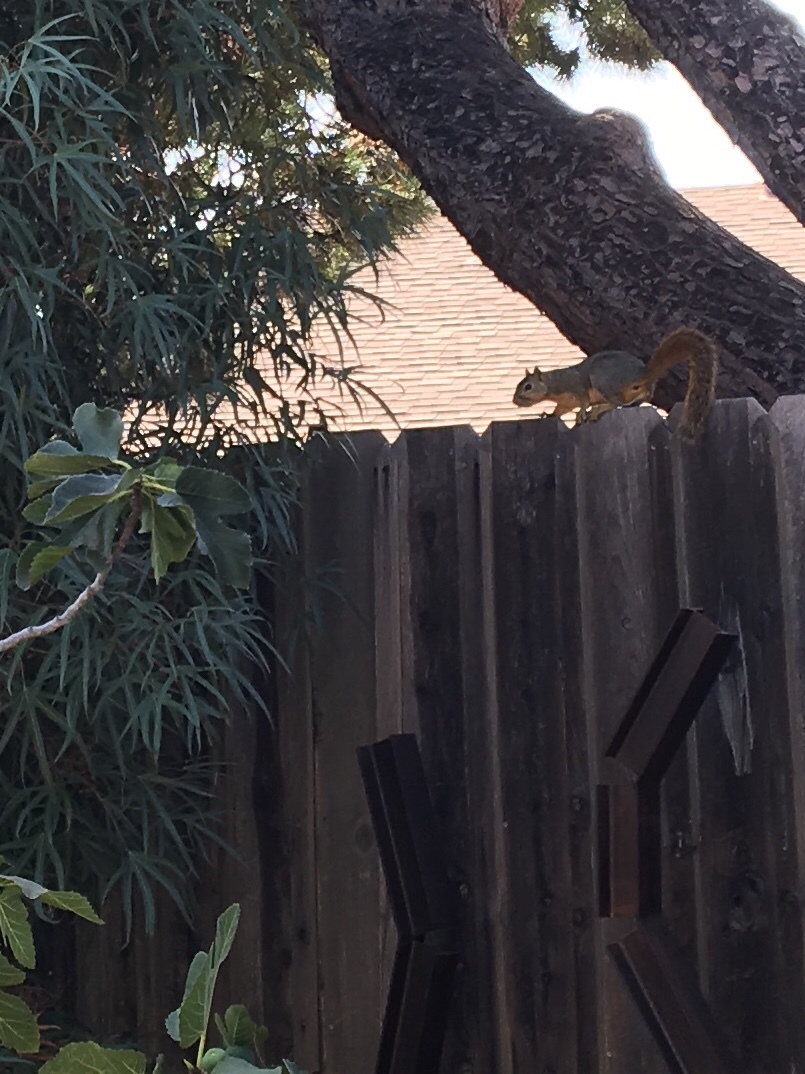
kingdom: Animalia
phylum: Chordata
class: Mammalia
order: Rodentia
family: Sciuridae
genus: Sciurus
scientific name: Sciurus niger
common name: Fox squirrel
